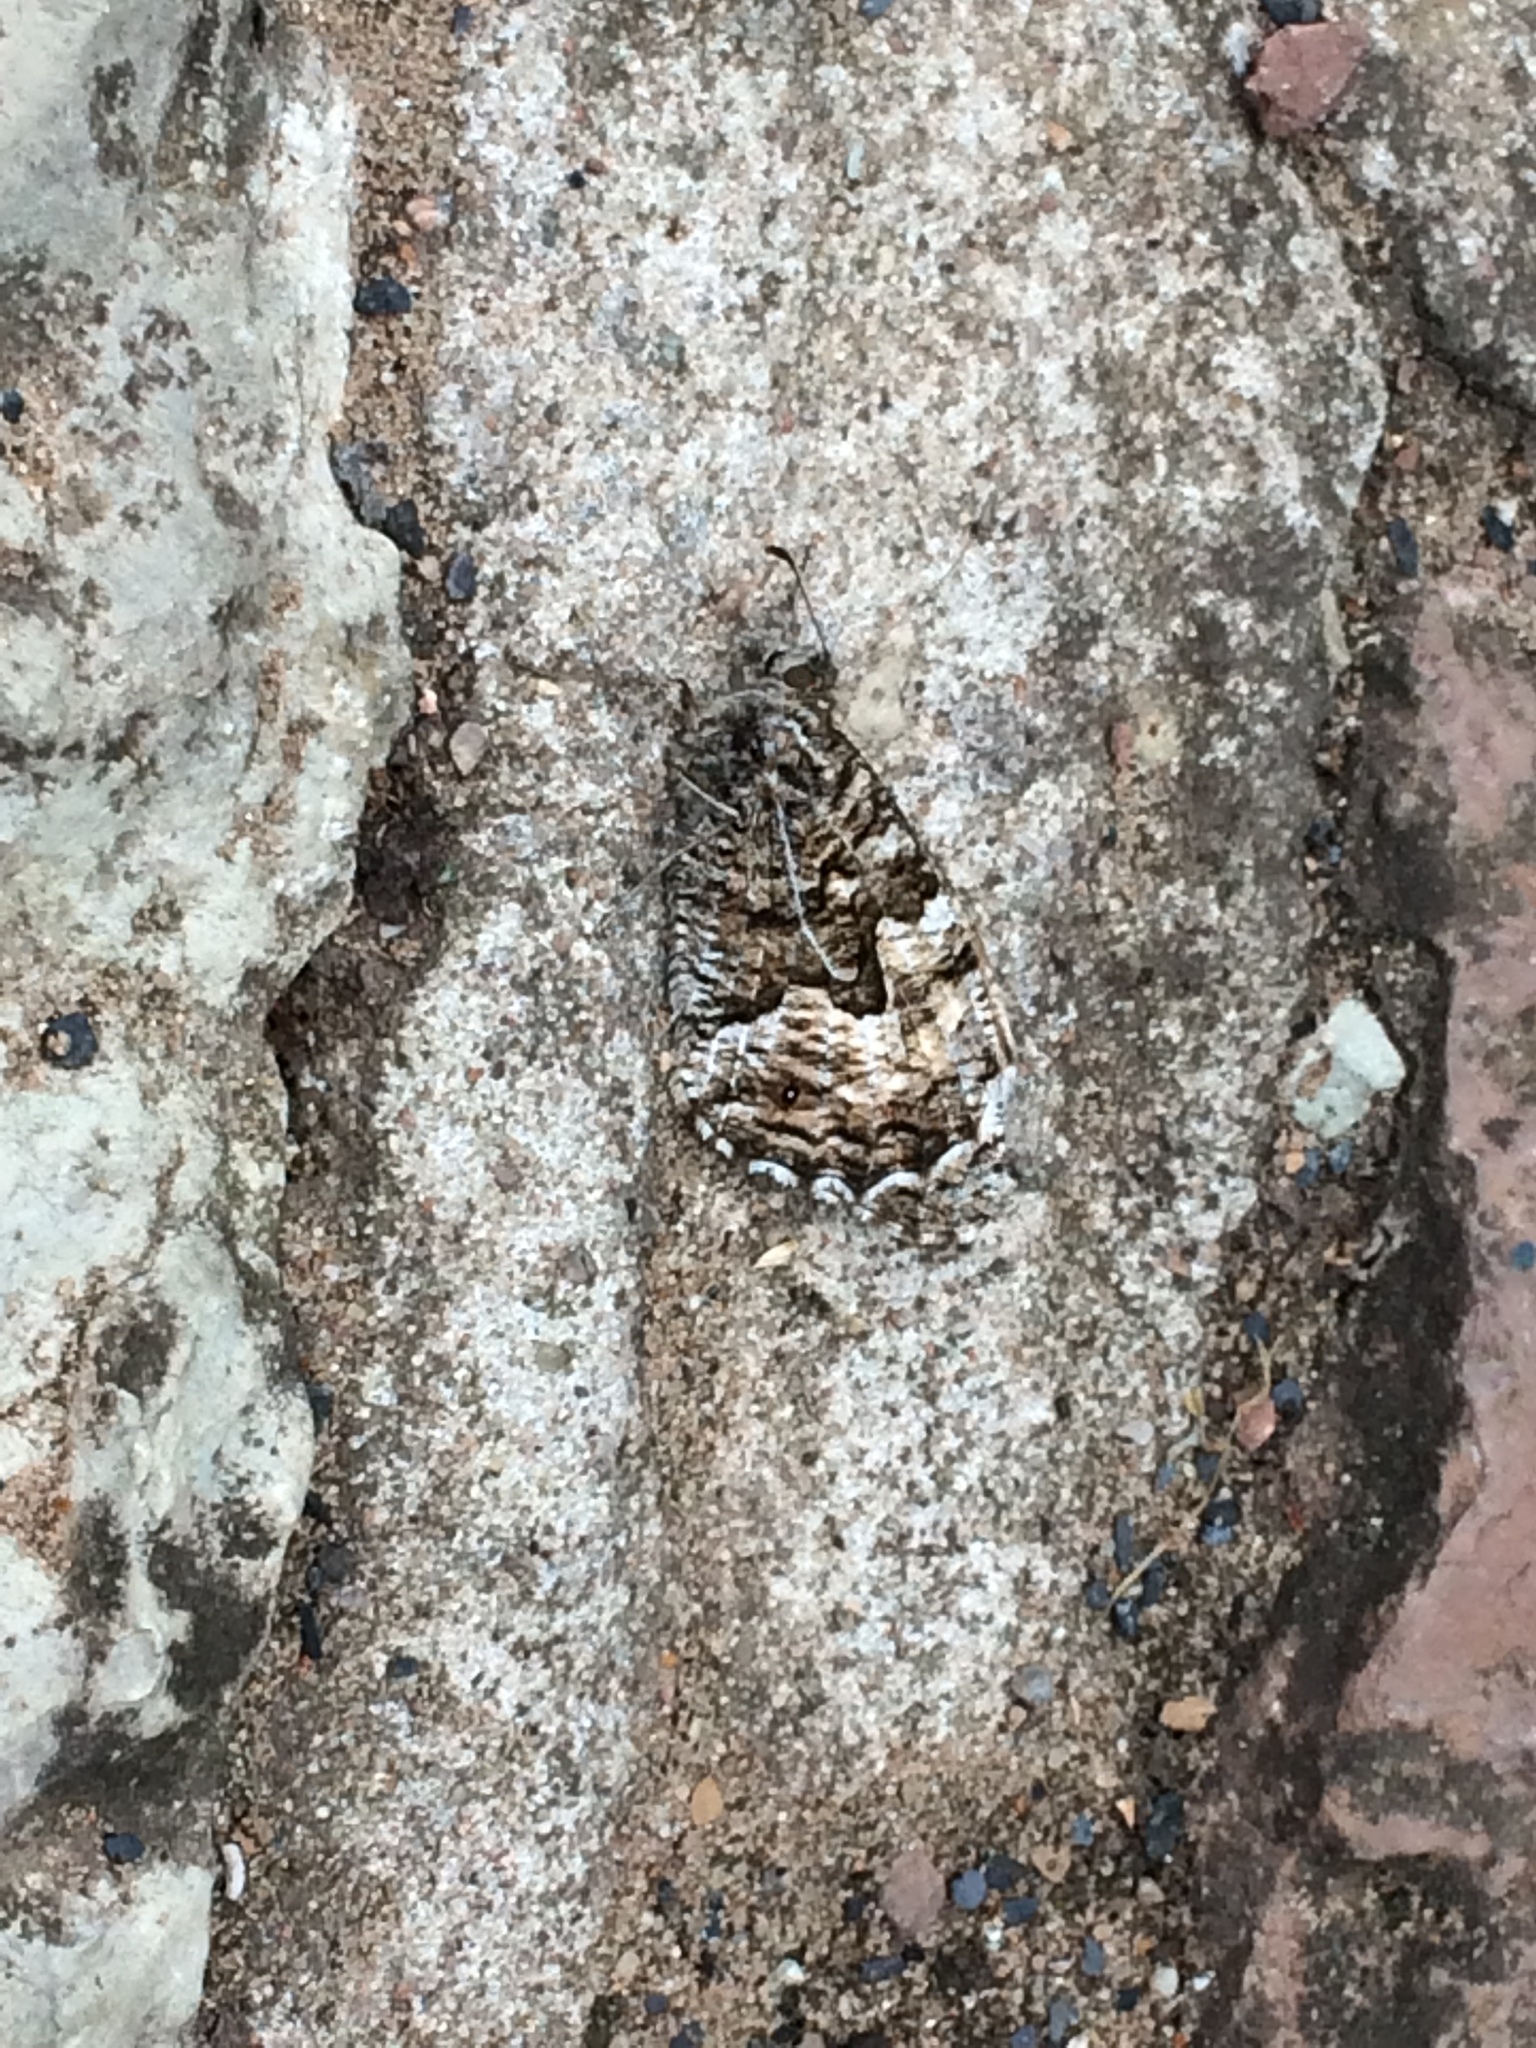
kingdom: Animalia
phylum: Arthropoda
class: Insecta
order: Lepidoptera
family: Nymphalidae
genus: Hipparchia
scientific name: Hipparchia semele
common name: Grayling
